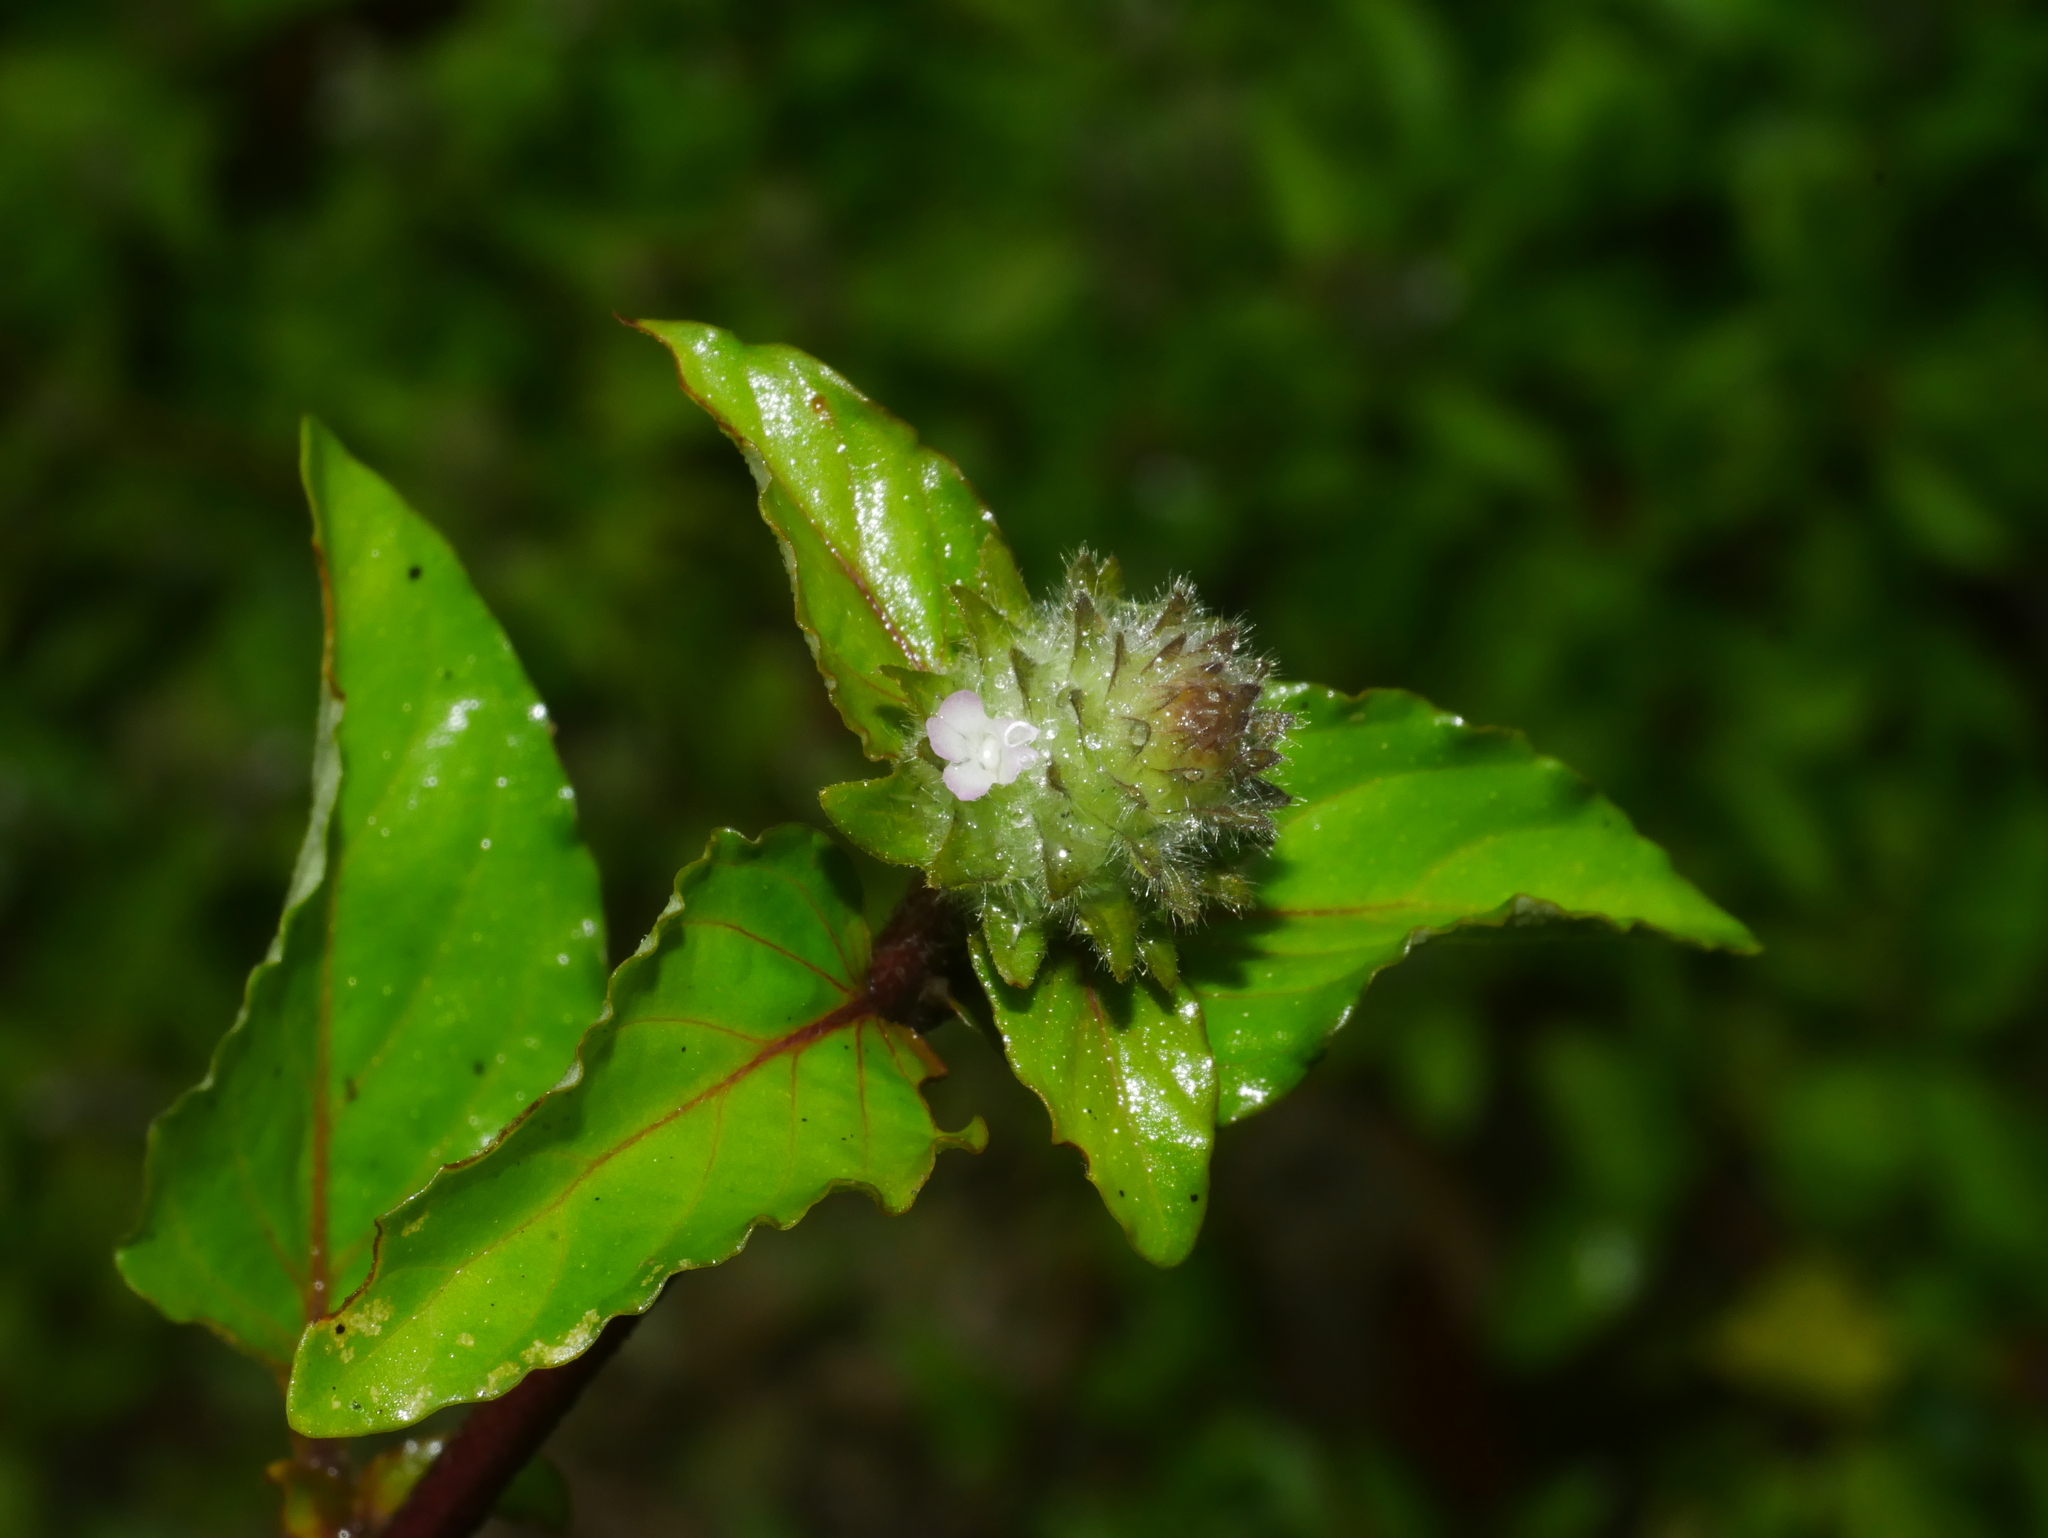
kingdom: Plantae
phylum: Tracheophyta
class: Magnoliopsida
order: Lamiales
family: Acanthaceae
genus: Nelsonia
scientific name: Nelsonia canescens
